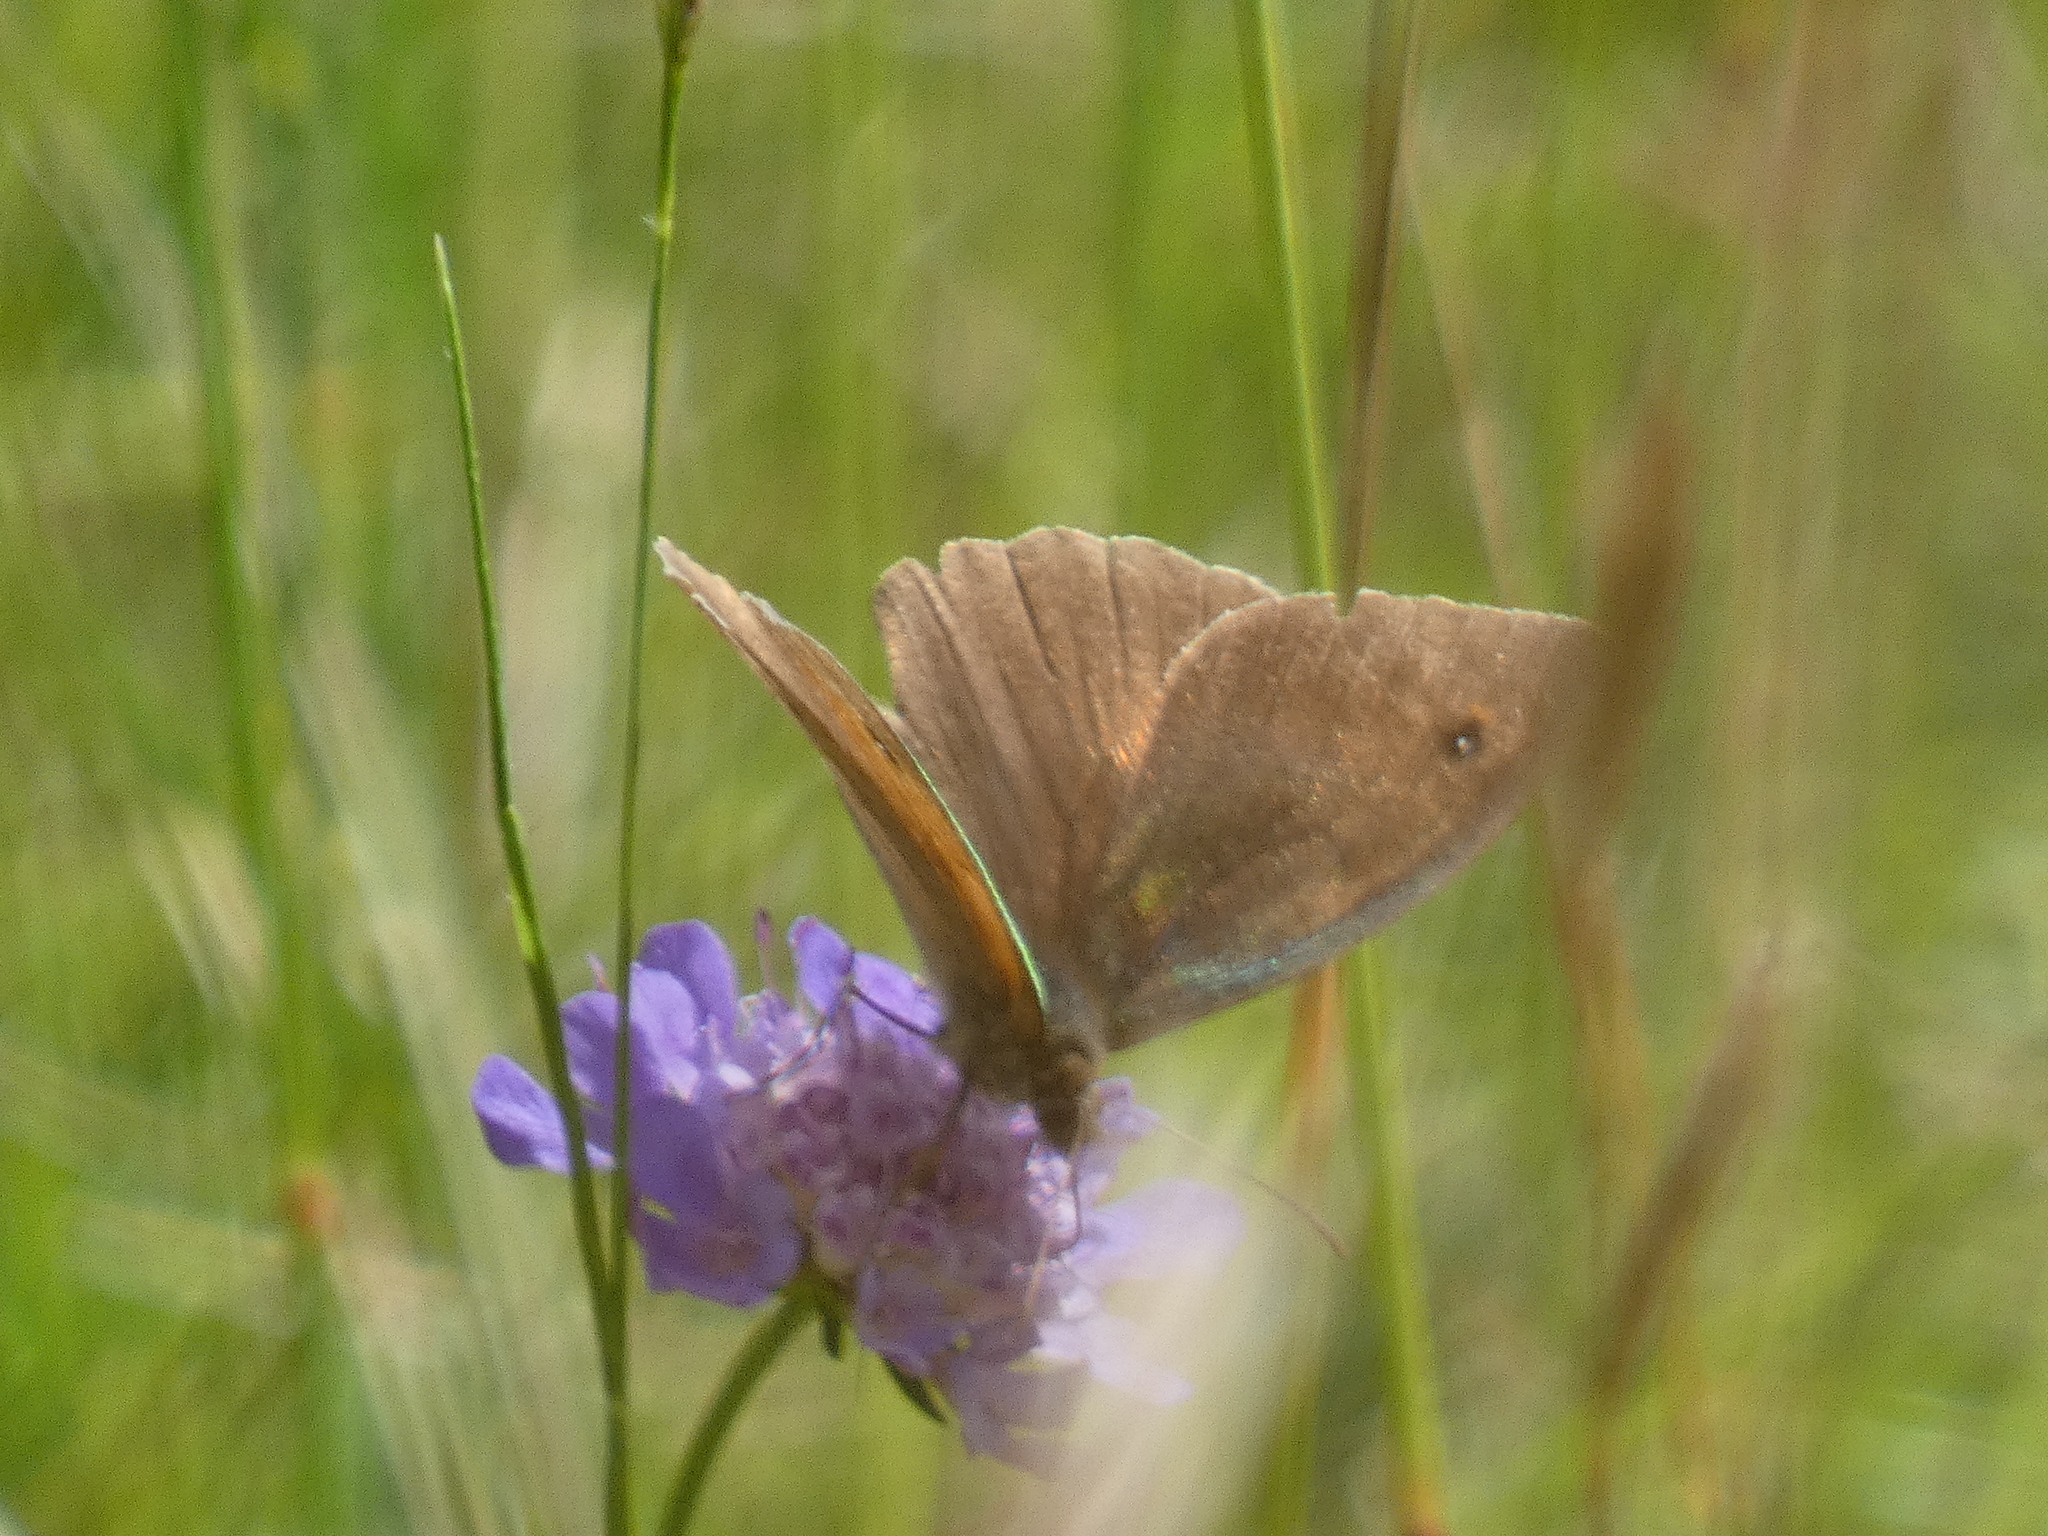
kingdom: Animalia
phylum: Arthropoda
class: Insecta
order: Lepidoptera
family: Nymphalidae
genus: Maniola
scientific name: Maniola jurtina
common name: Meadow brown
